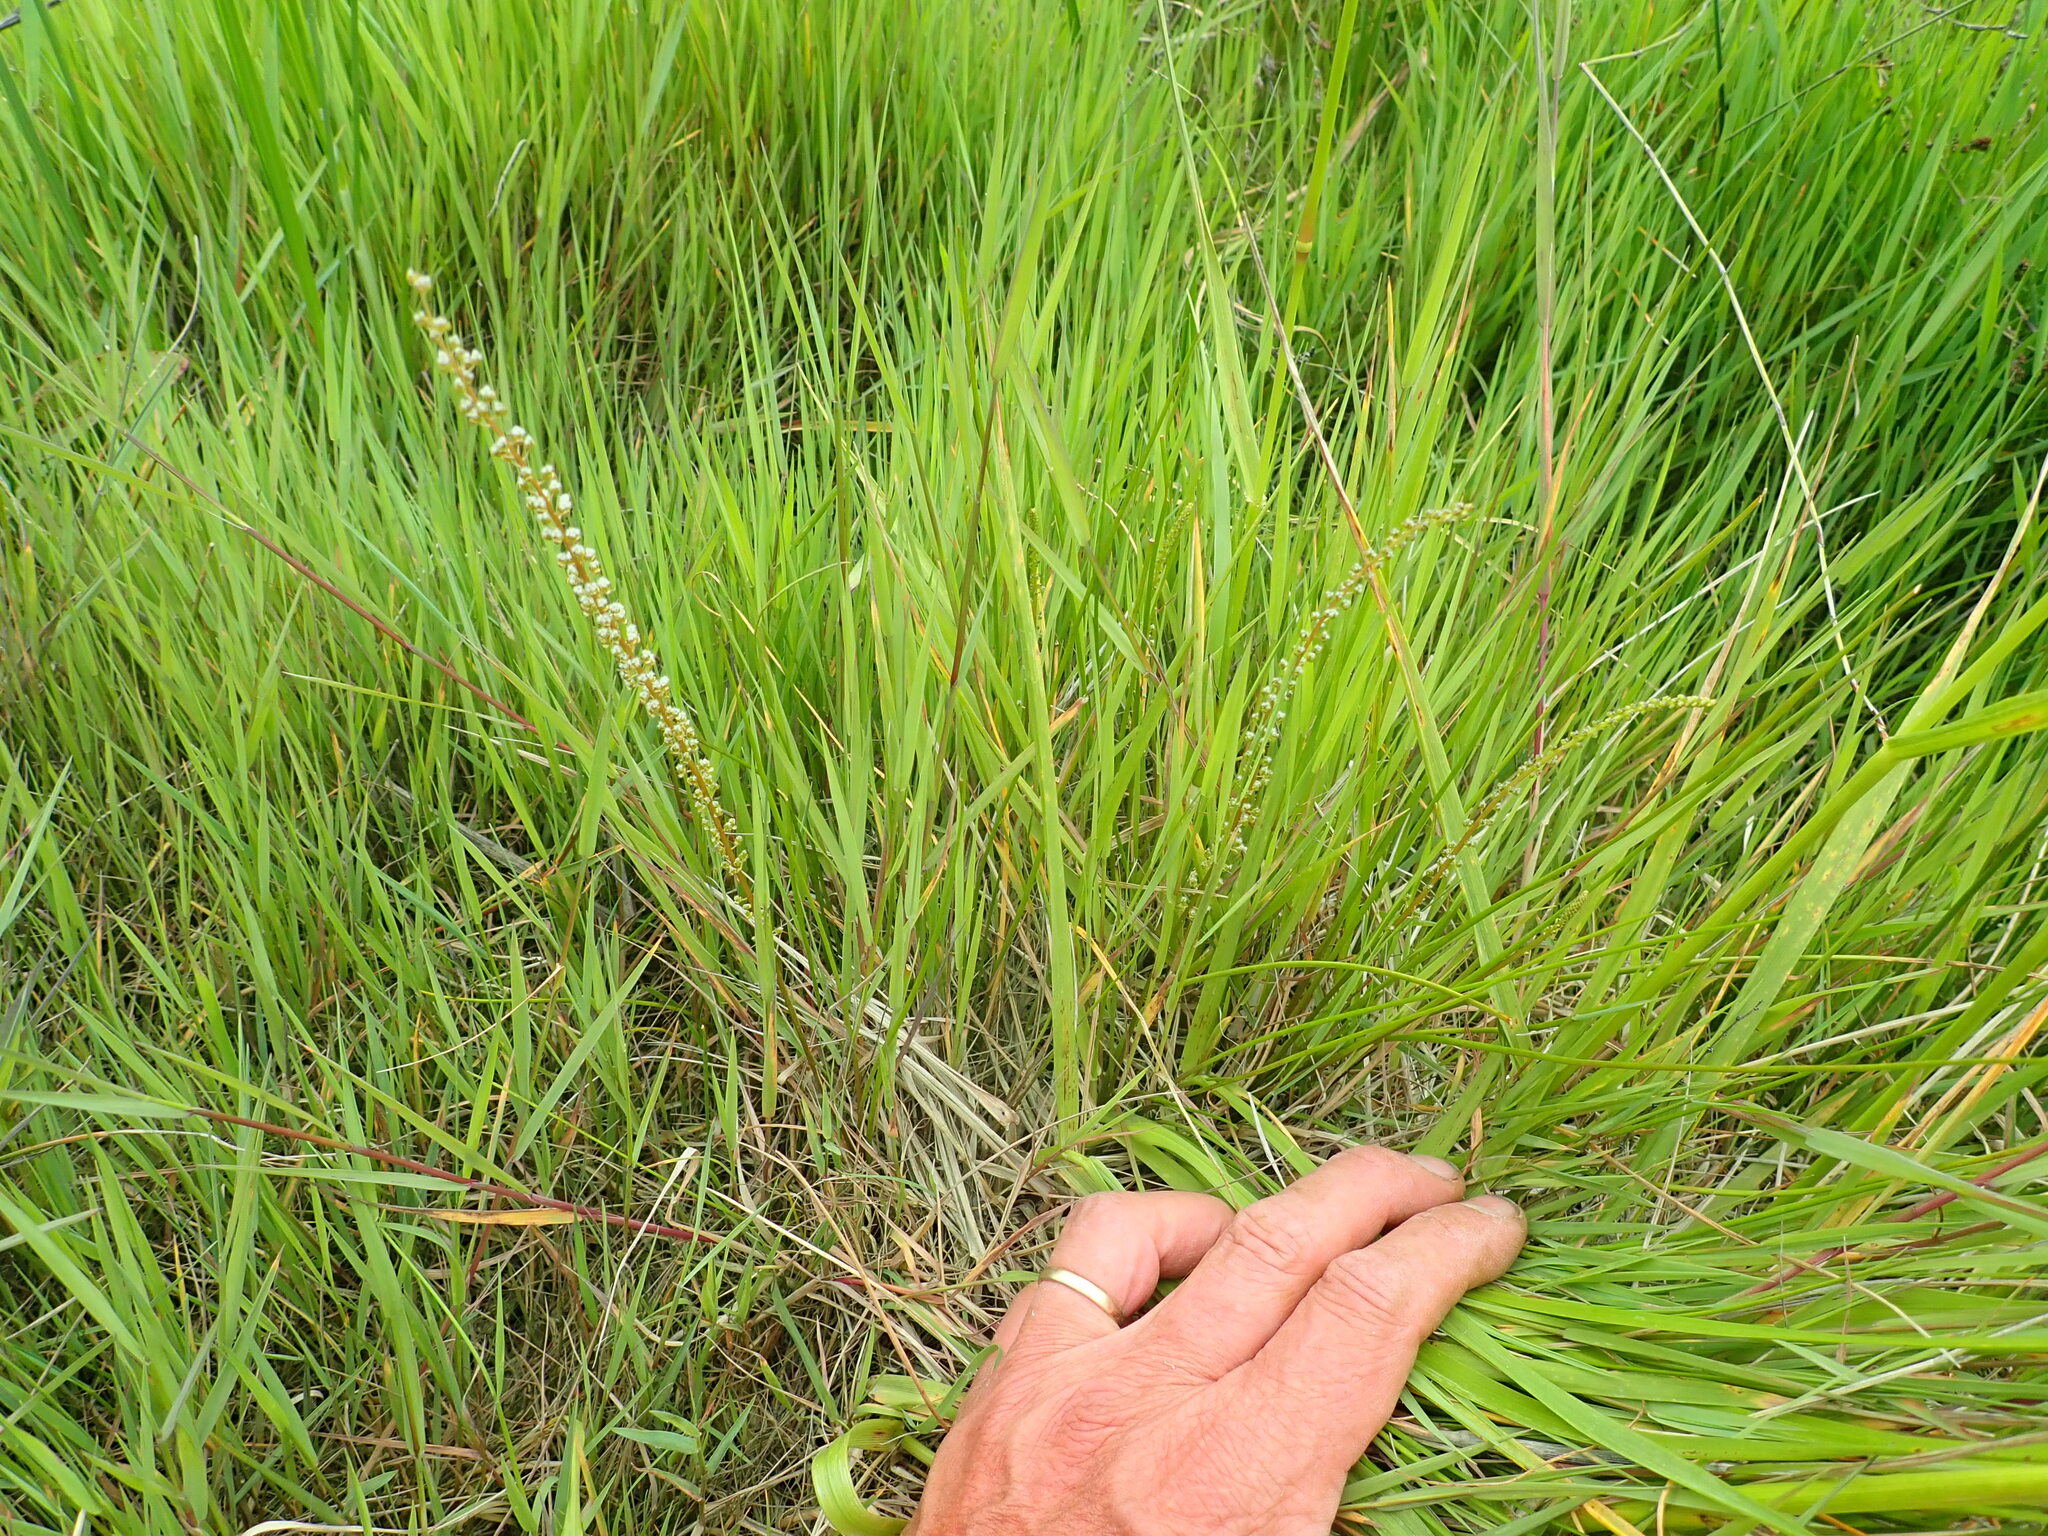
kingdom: Plantae
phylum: Tracheophyta
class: Liliopsida
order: Alismatales
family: Juncaginaceae
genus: Triglochin
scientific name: Triglochin striata
